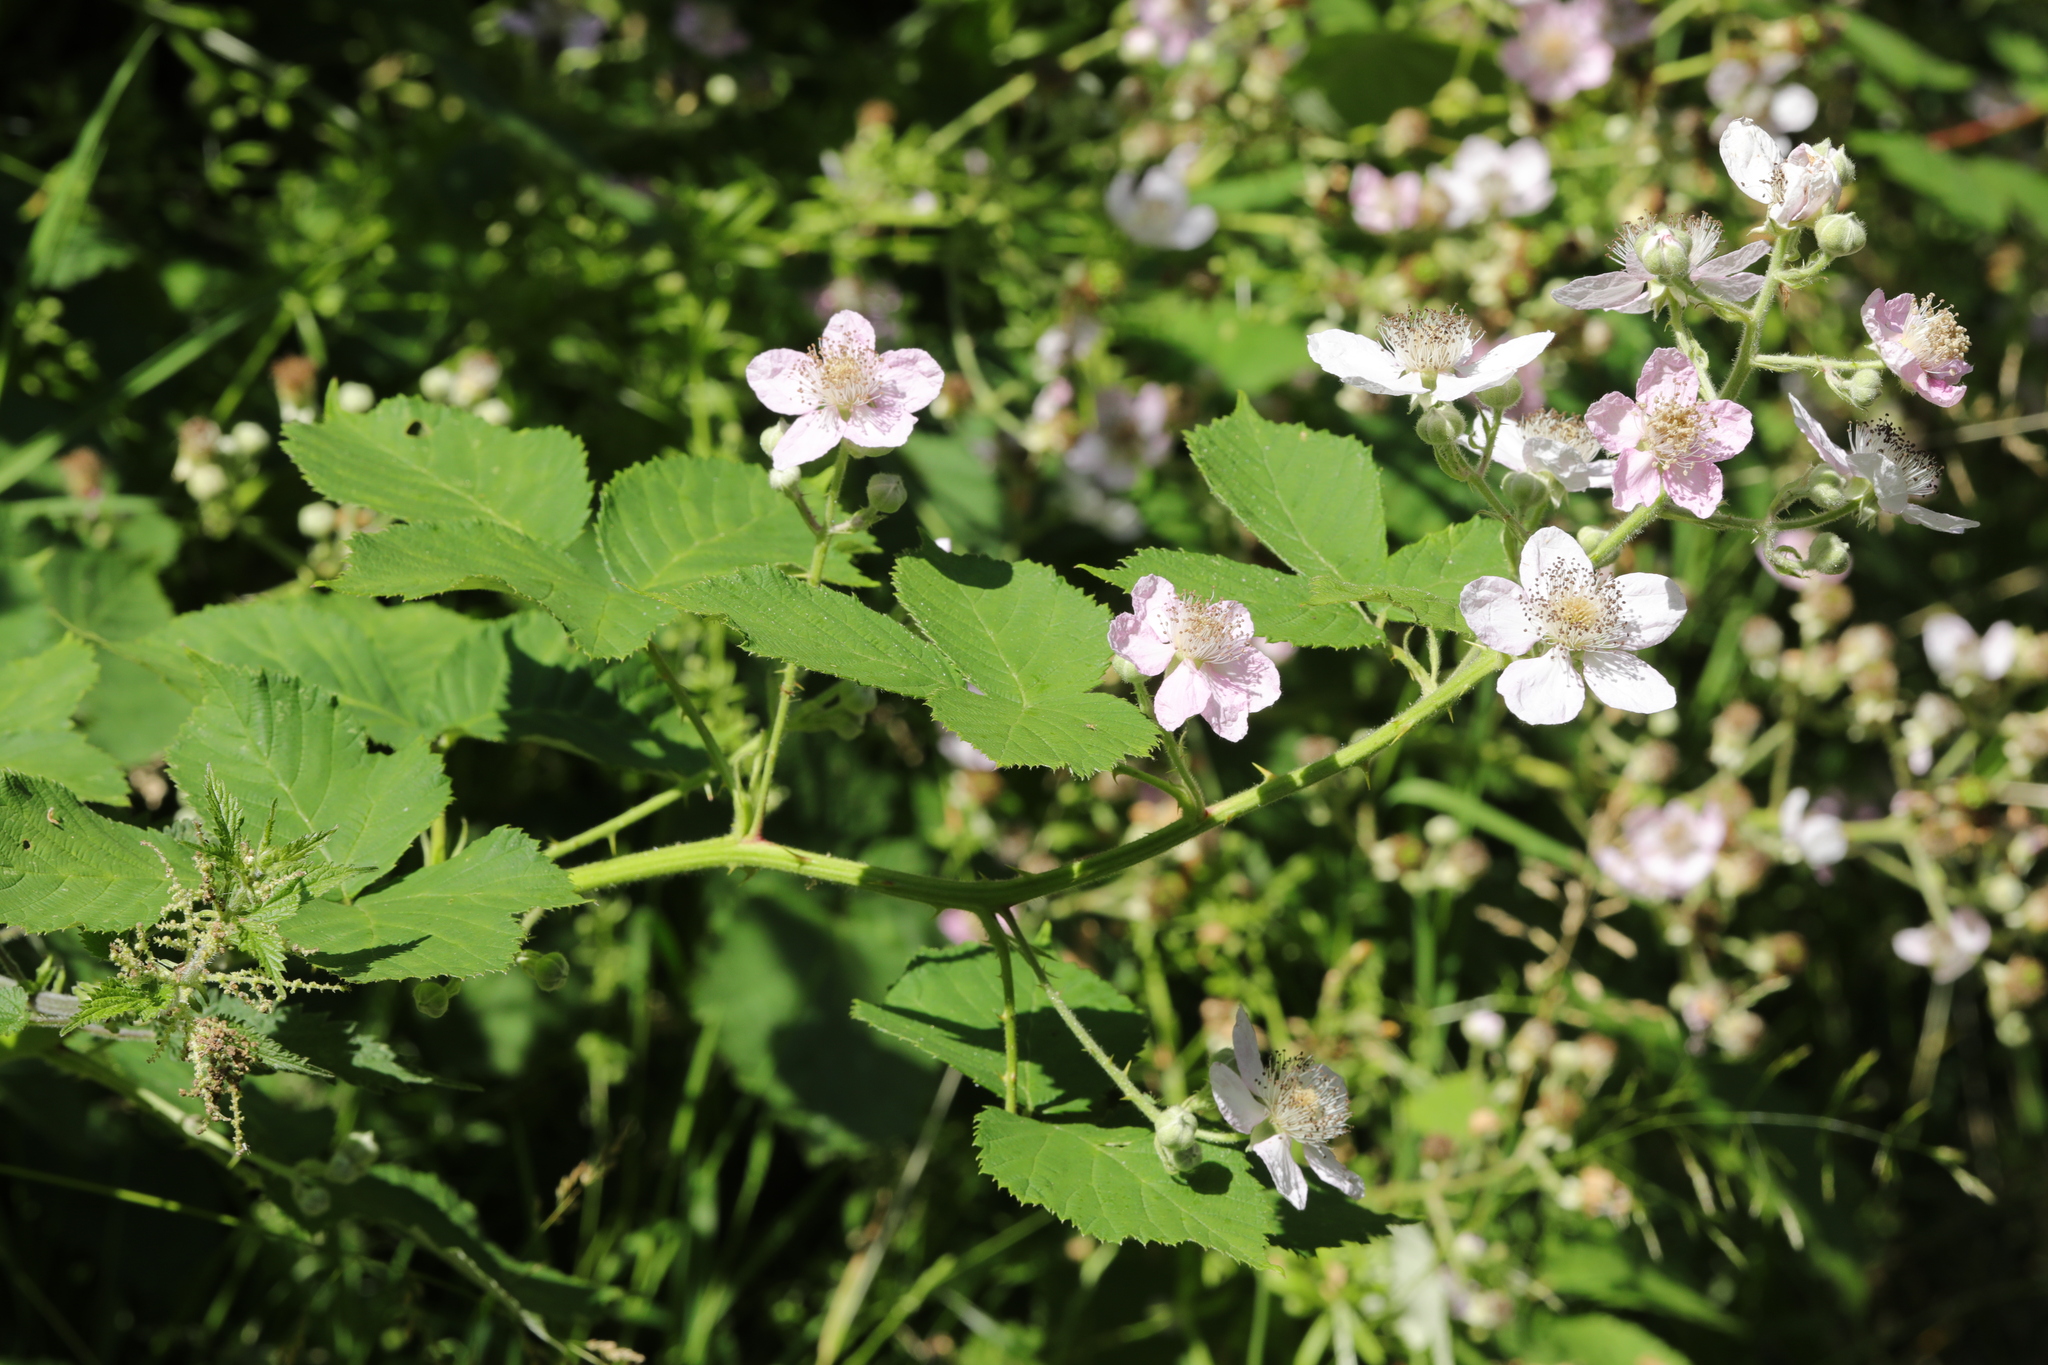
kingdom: Plantae
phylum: Tracheophyta
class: Magnoliopsida
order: Rosales
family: Rosaceae
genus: Rubus
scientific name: Rubus armeniacus
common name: Himalayan blackberry
